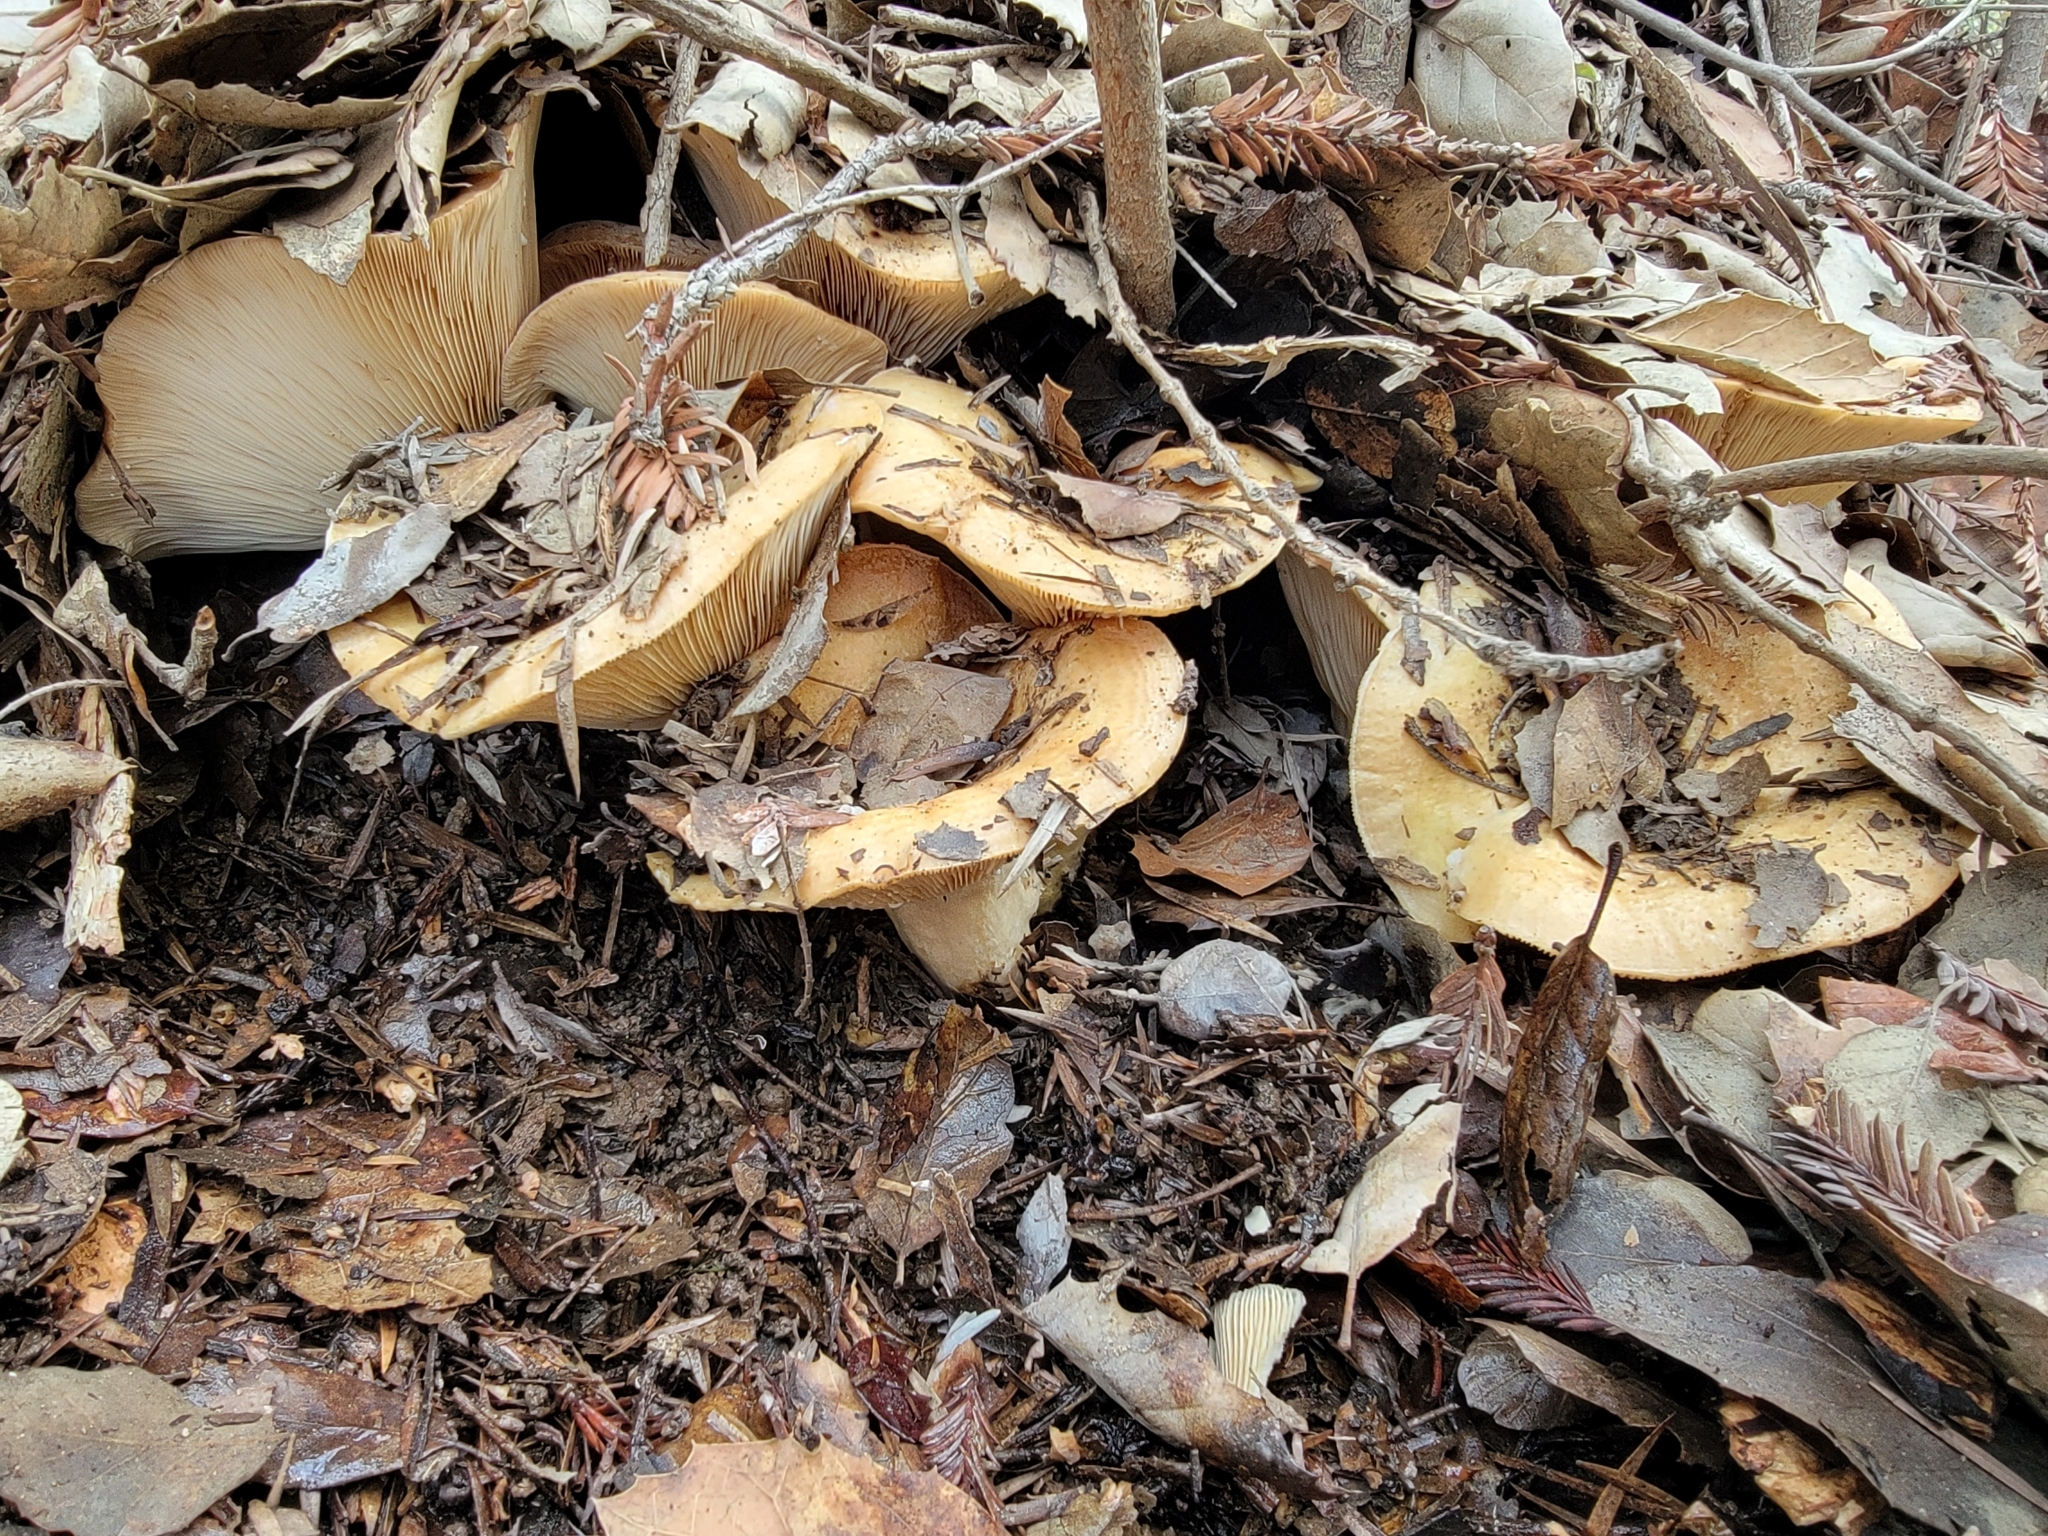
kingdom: Fungi
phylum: Basidiomycota
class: Agaricomycetes
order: Russulales
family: Russulaceae
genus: Lactarius
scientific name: Lactarius alnicola
